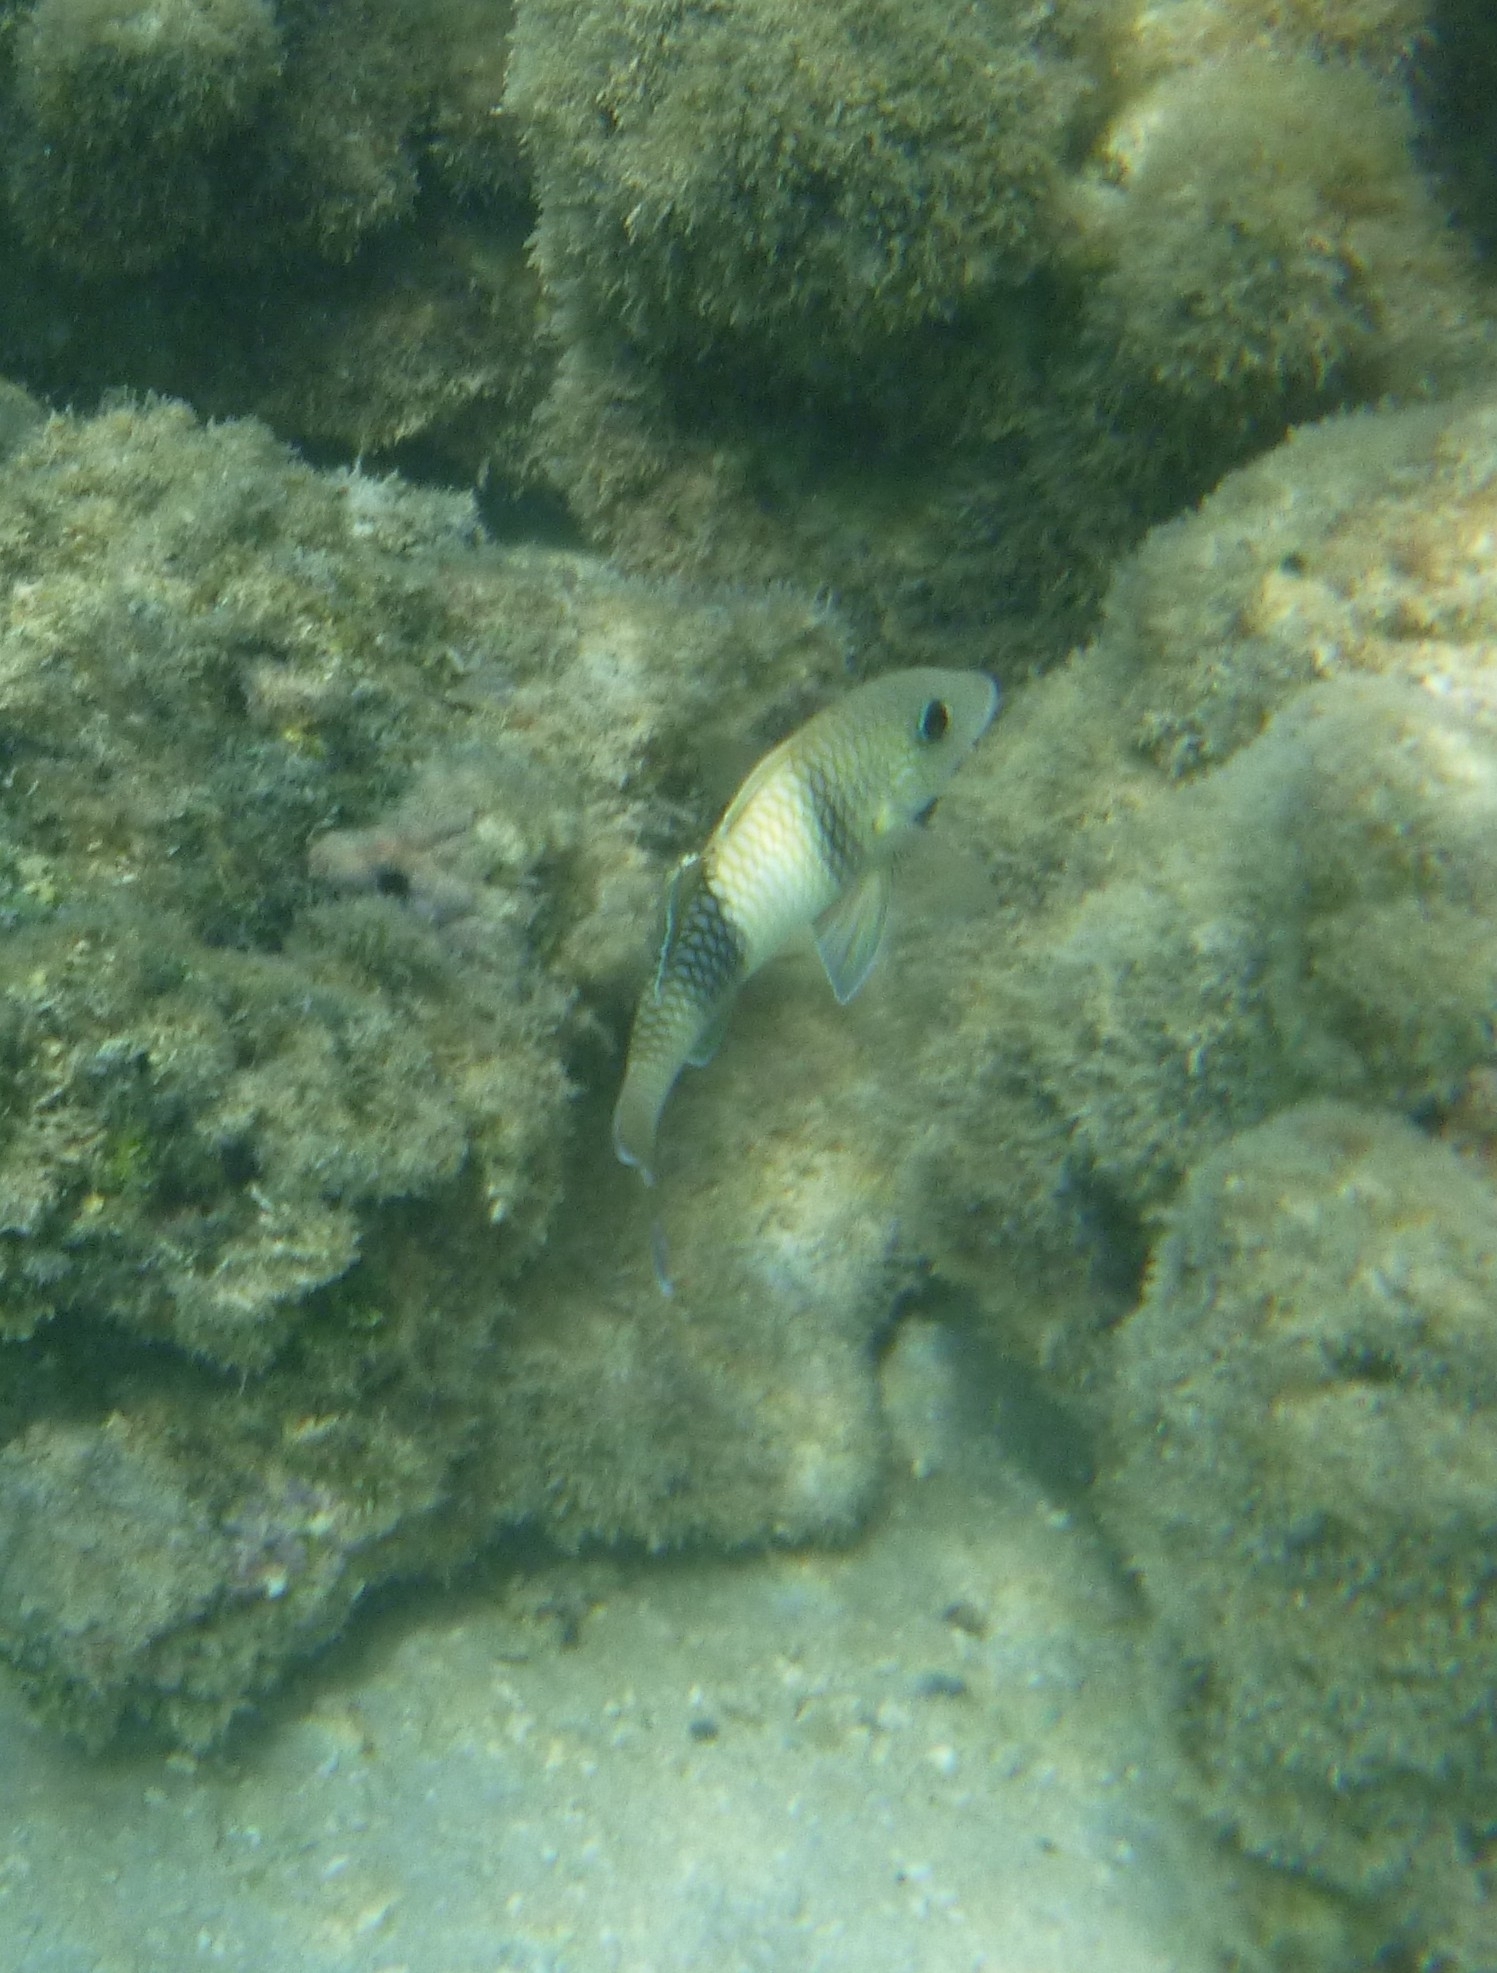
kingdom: Animalia
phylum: Chordata
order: Perciformes
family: Mullidae
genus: Parupeneus
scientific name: Parupeneus insularis
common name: Doublebar goatfish
